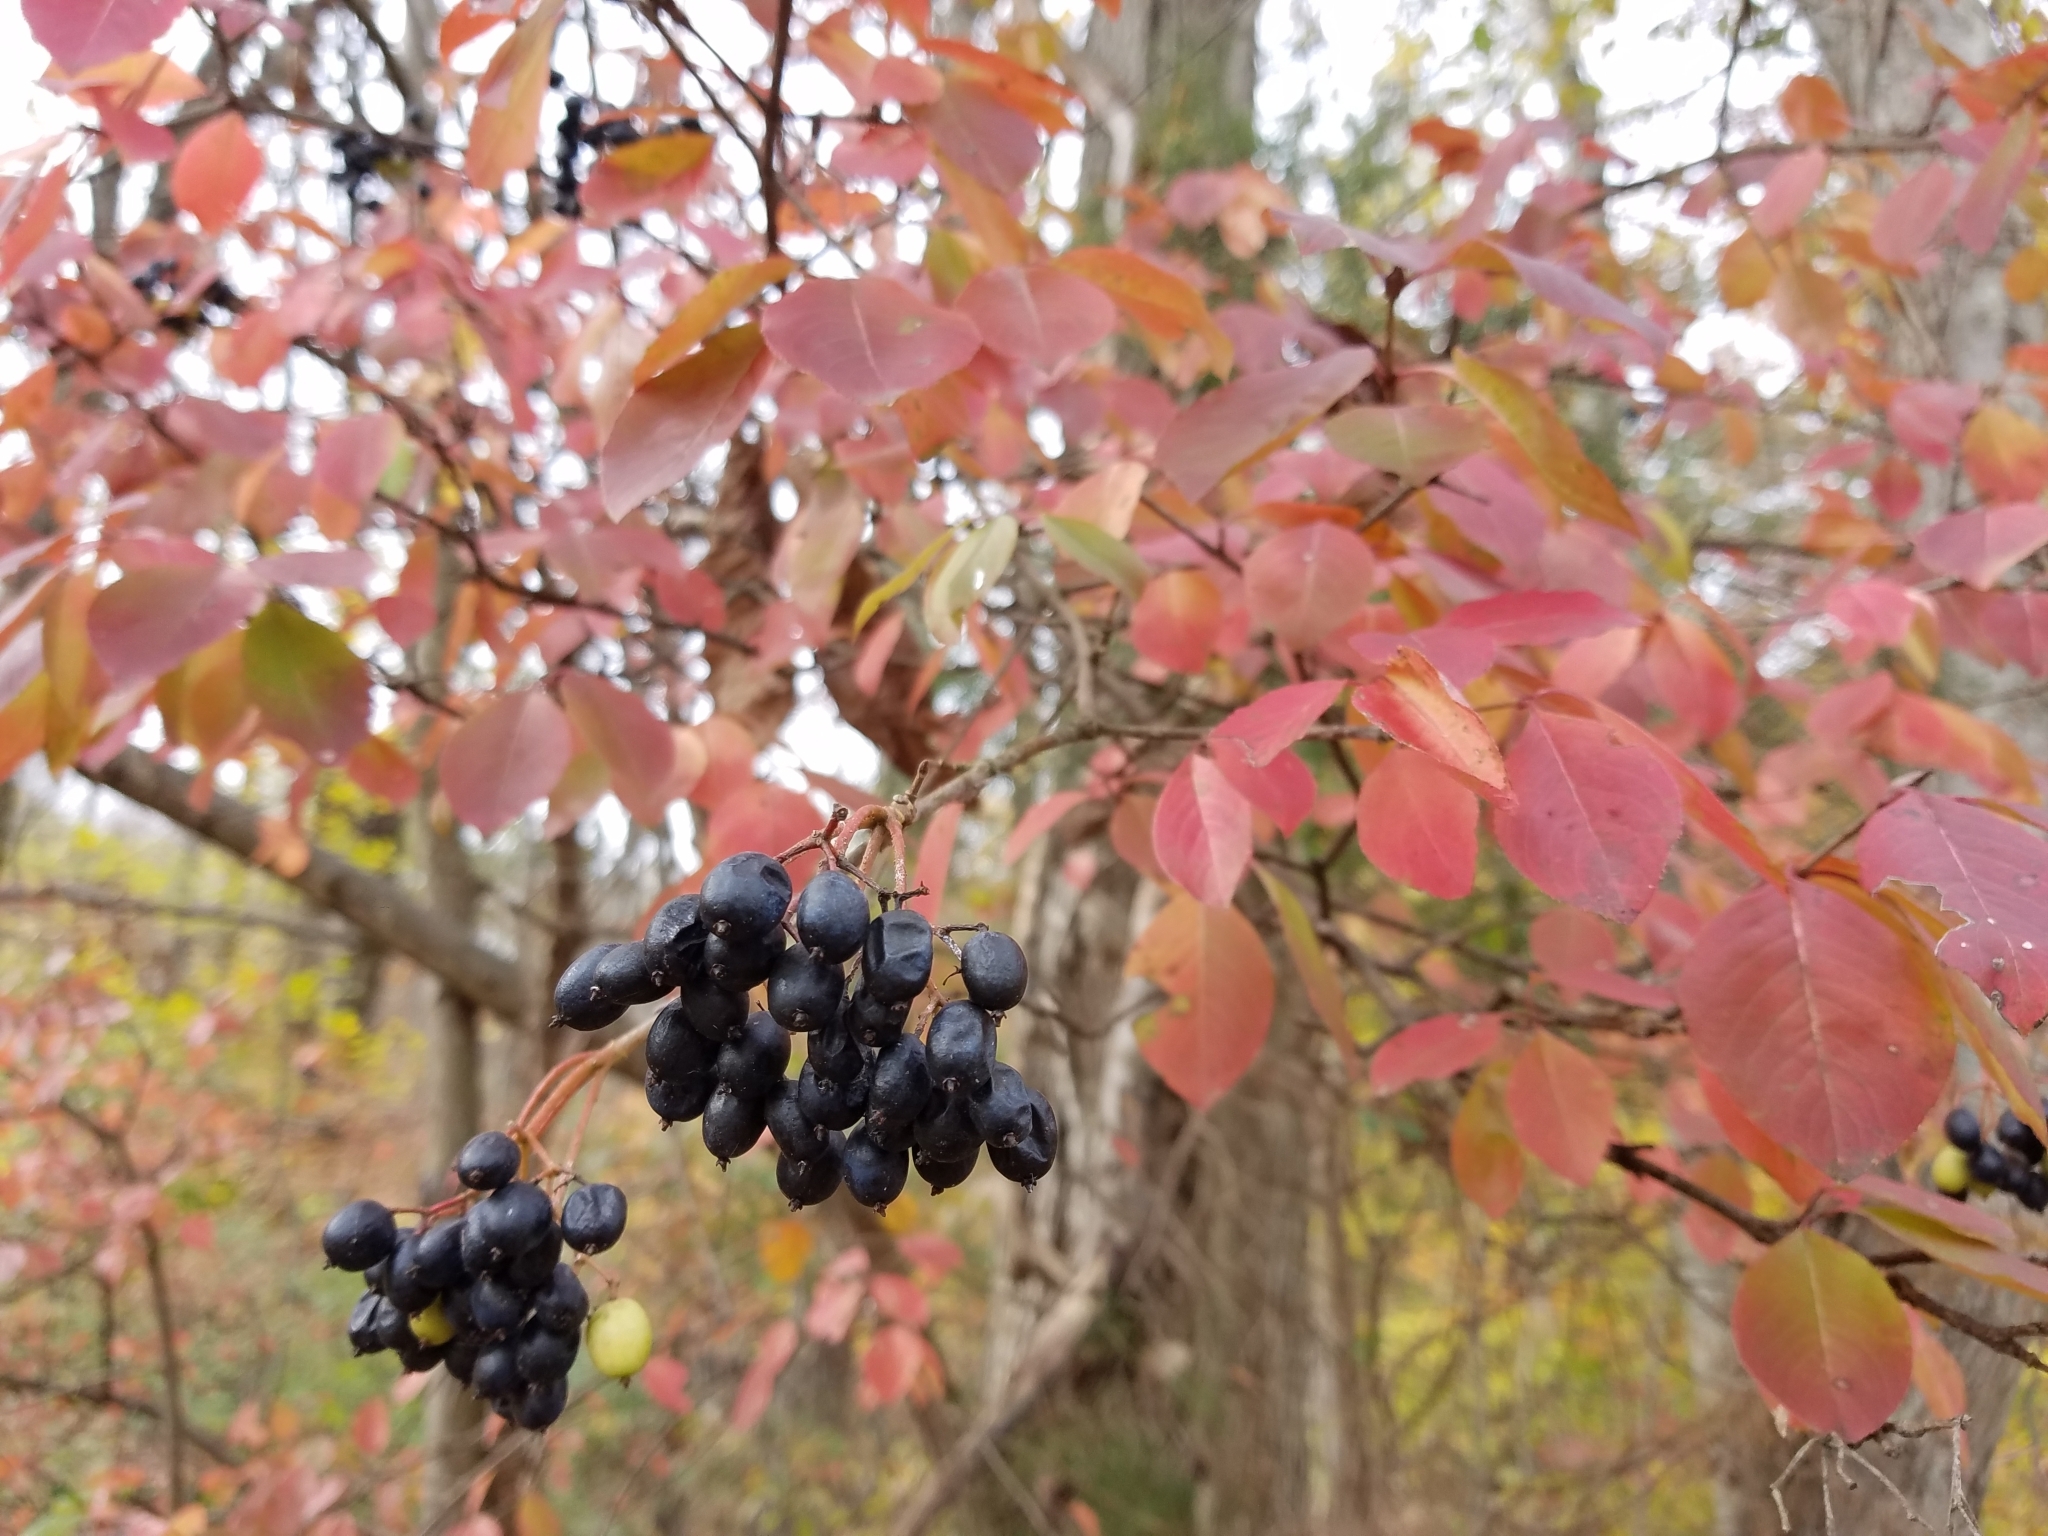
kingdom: Plantae
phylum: Tracheophyta
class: Magnoliopsida
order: Dipsacales
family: Viburnaceae
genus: Viburnum
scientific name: Viburnum prunifolium
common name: Black haw
